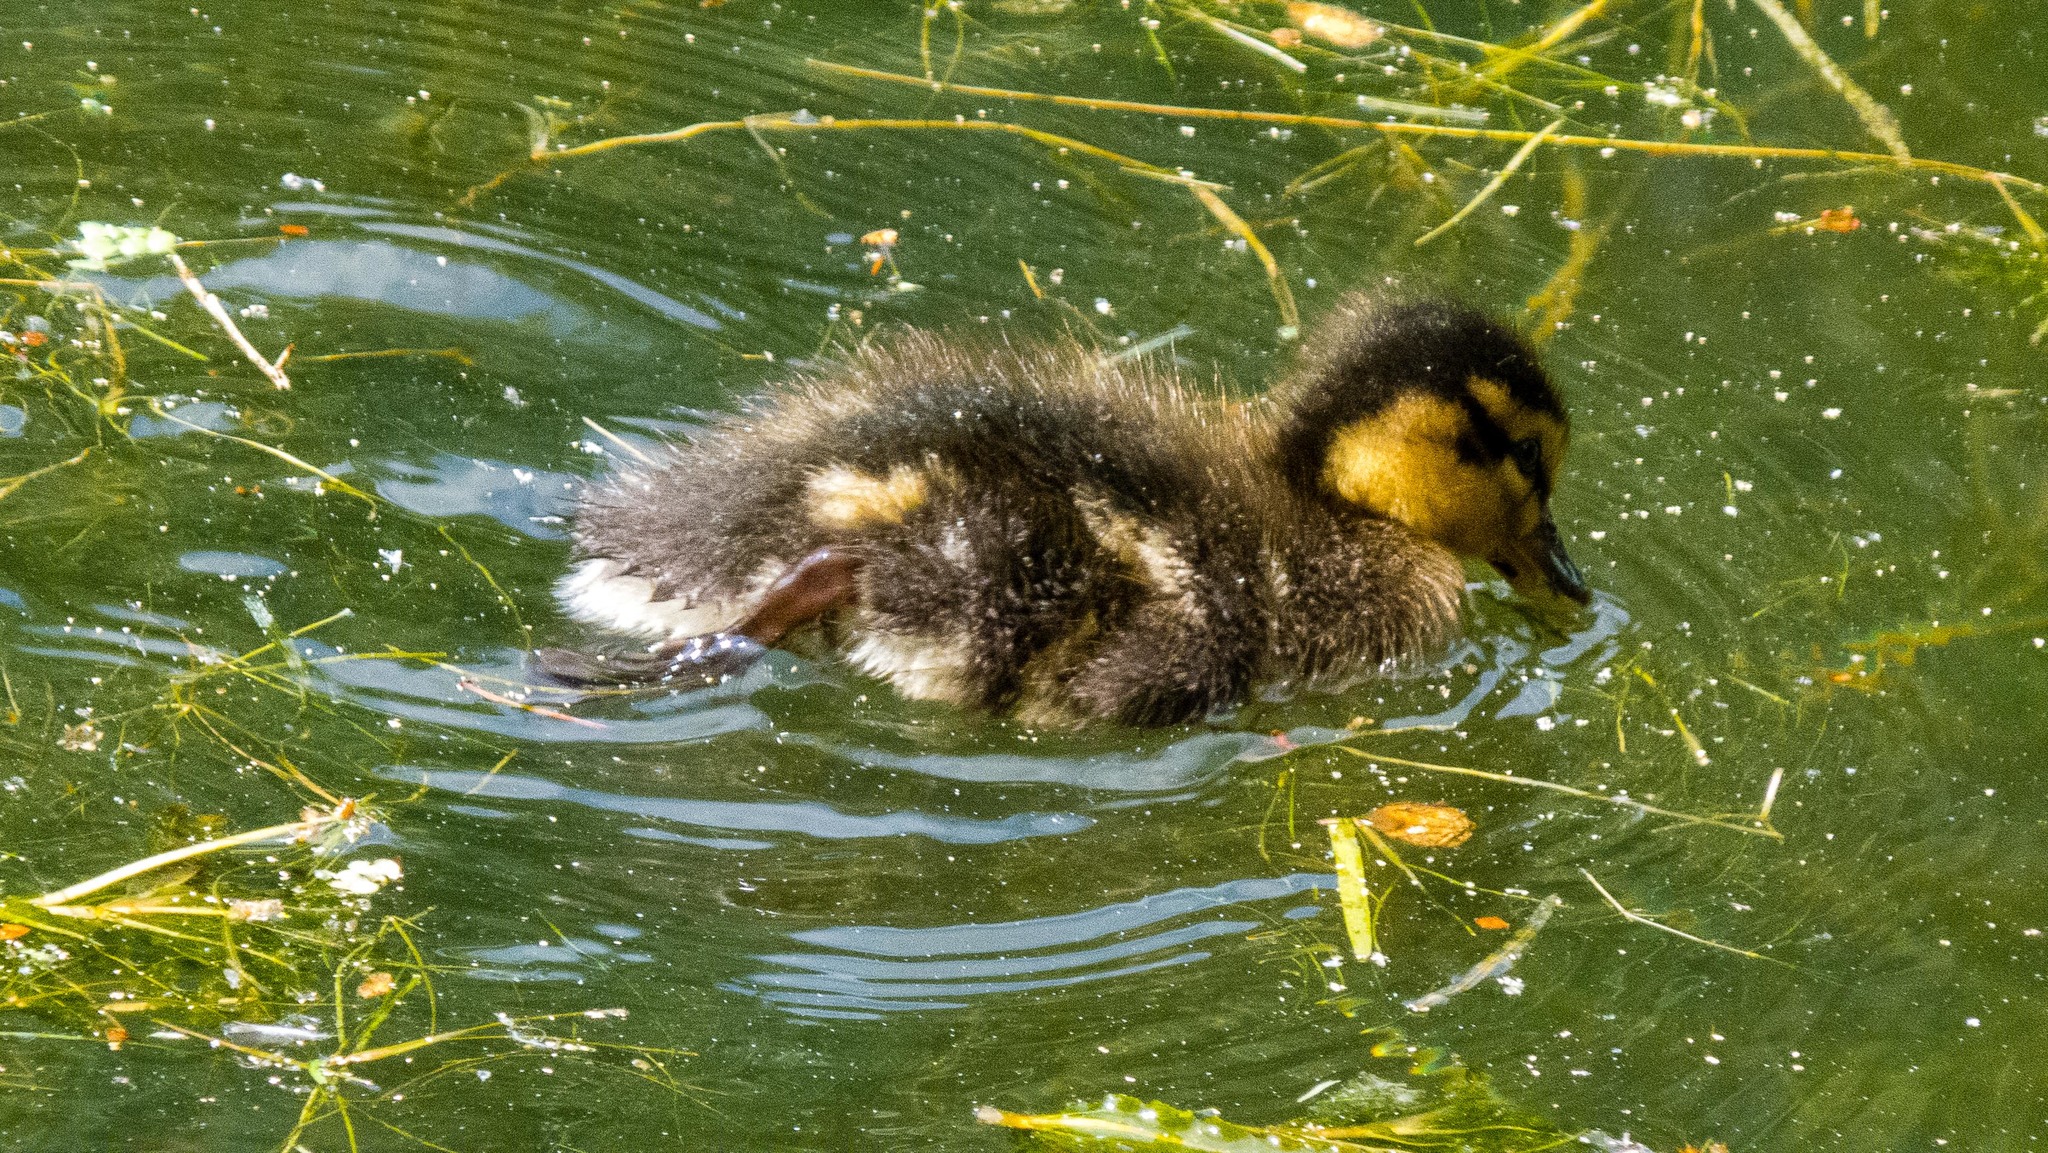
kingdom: Animalia
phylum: Chordata
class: Aves
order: Anseriformes
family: Anatidae
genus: Anas
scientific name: Anas platyrhynchos
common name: Mallard
